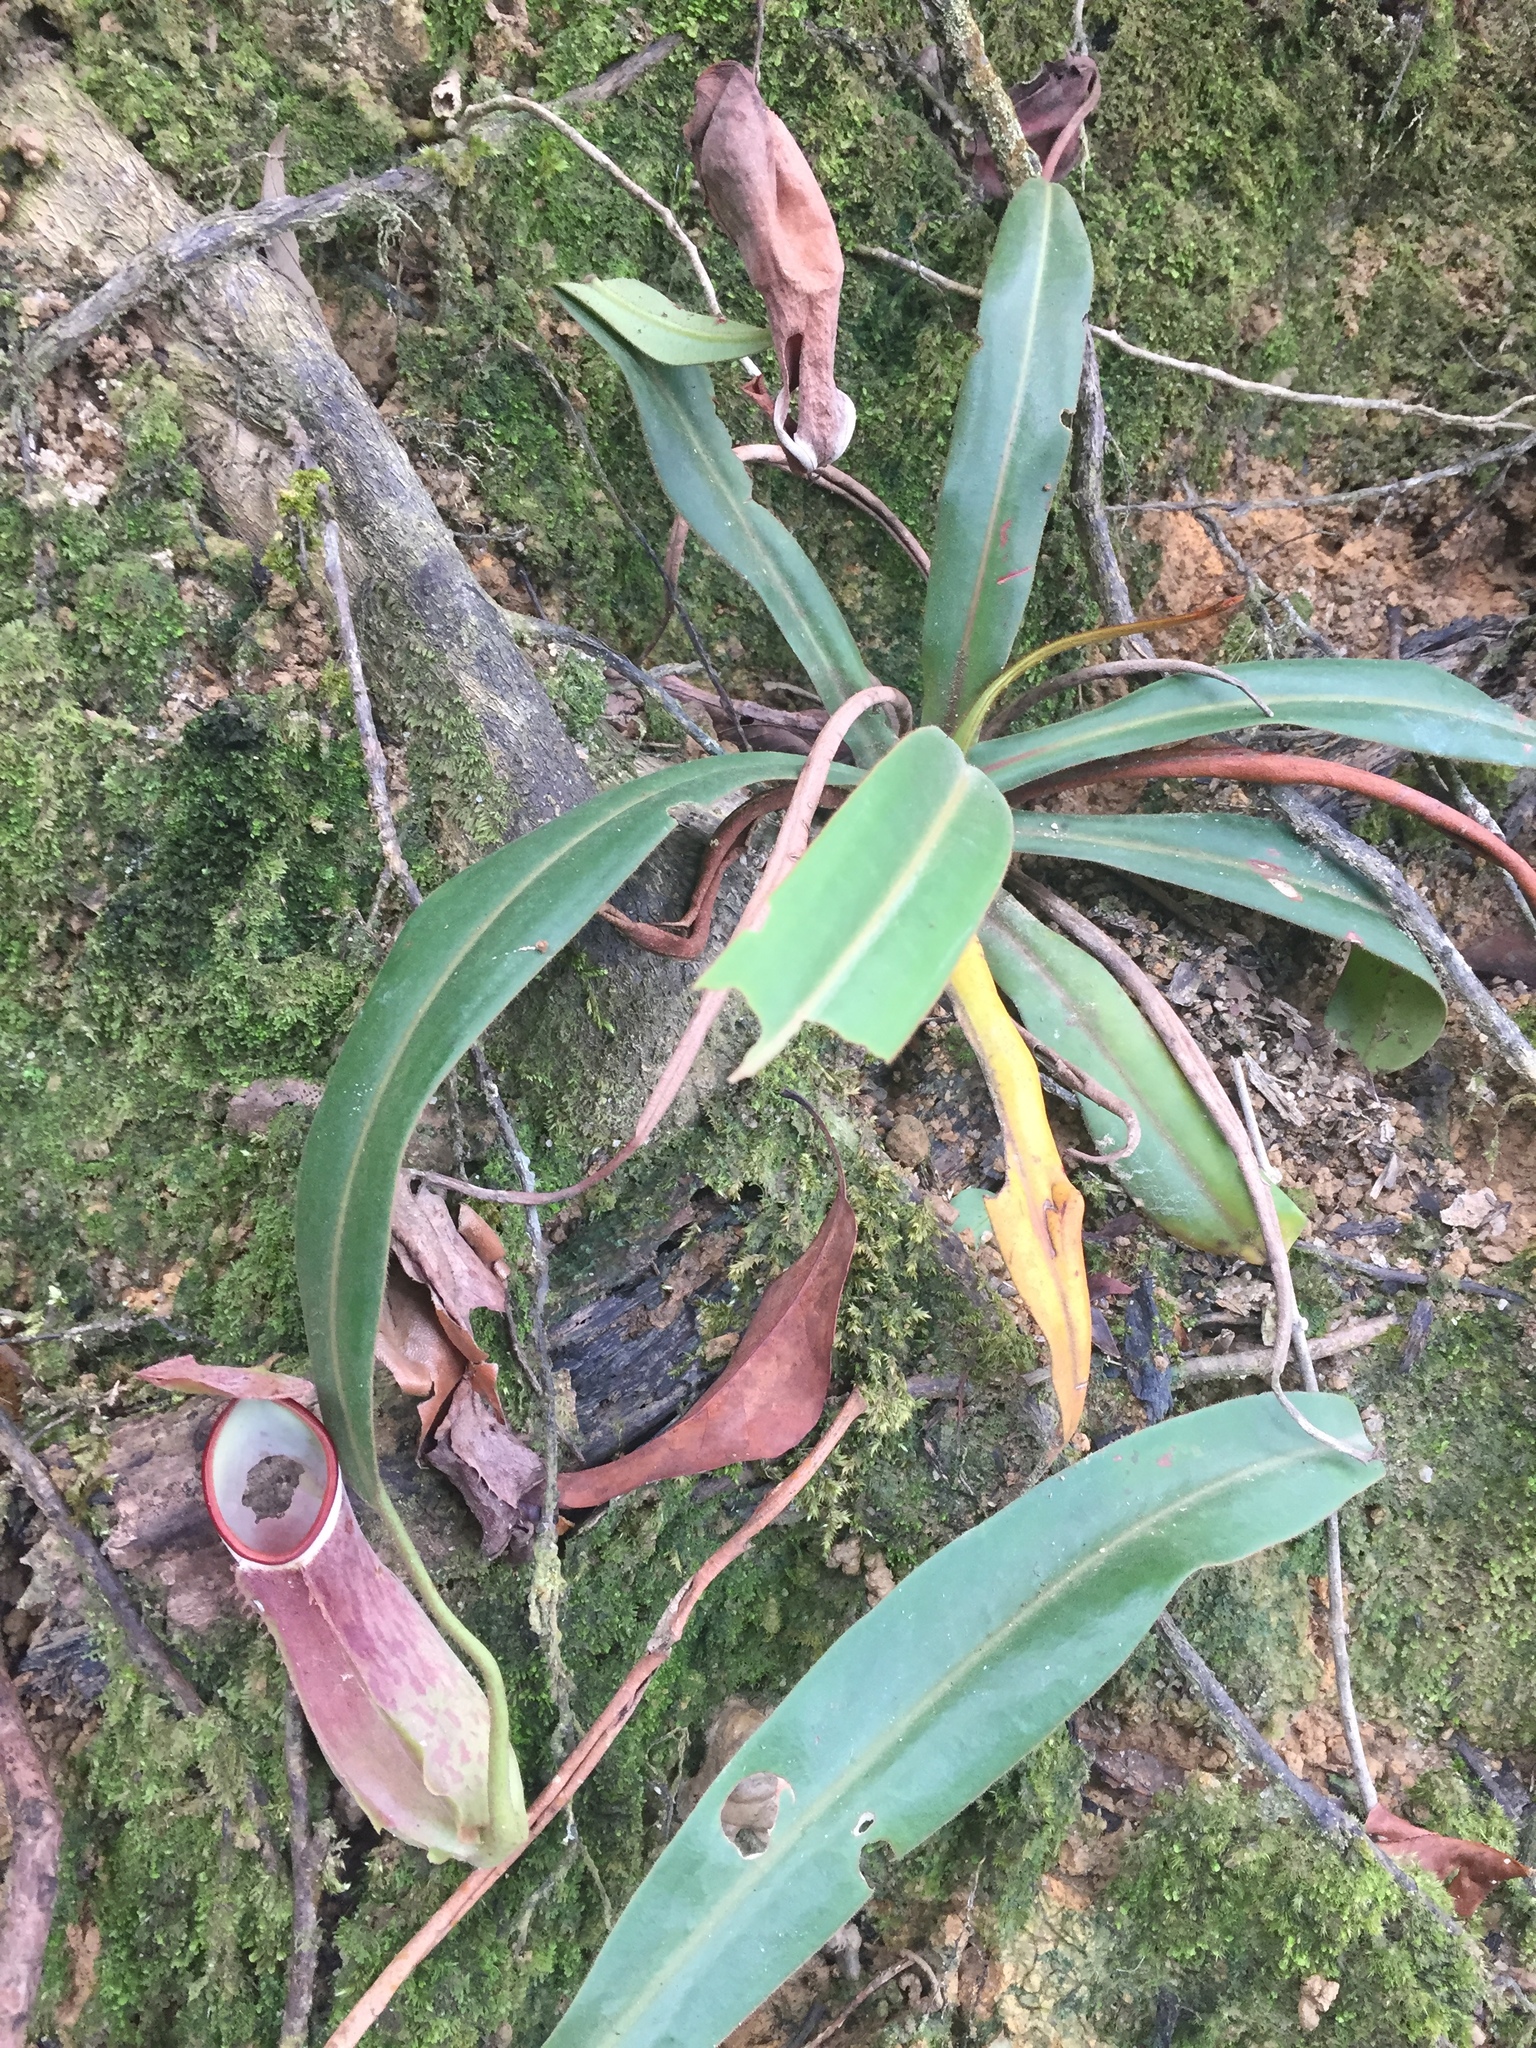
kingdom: Plantae
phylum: Tracheophyta
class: Magnoliopsida
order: Caryophyllales
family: Nepenthaceae
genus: Nepenthes
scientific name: Nepenthes albomarginata
